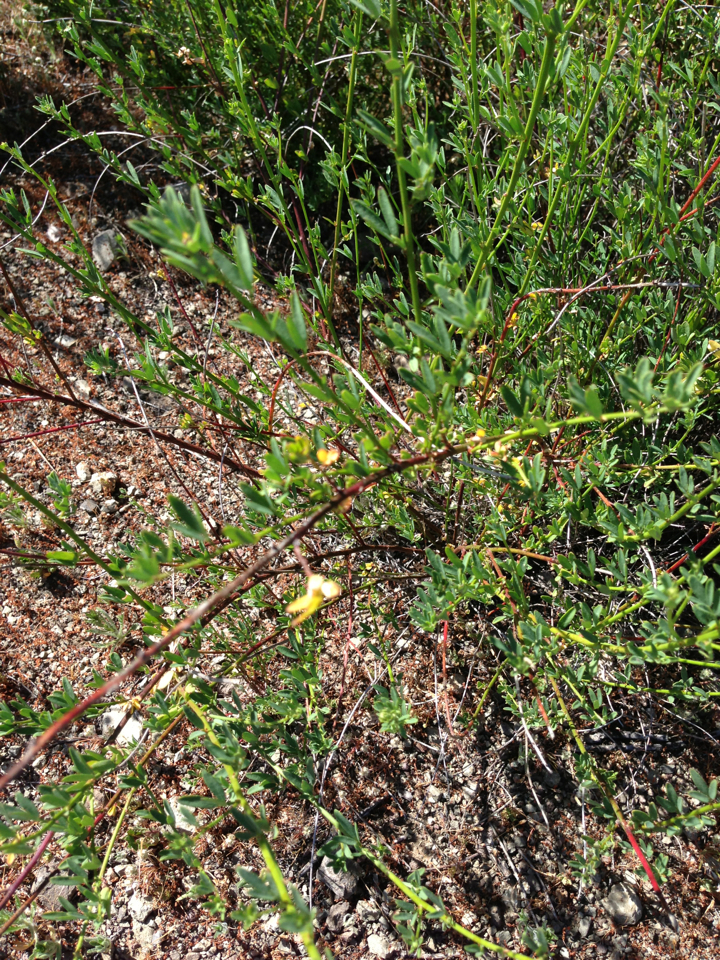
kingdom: Plantae
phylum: Tracheophyta
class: Magnoliopsida
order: Fabales
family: Fabaceae
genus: Acmispon
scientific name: Acmispon glaber
